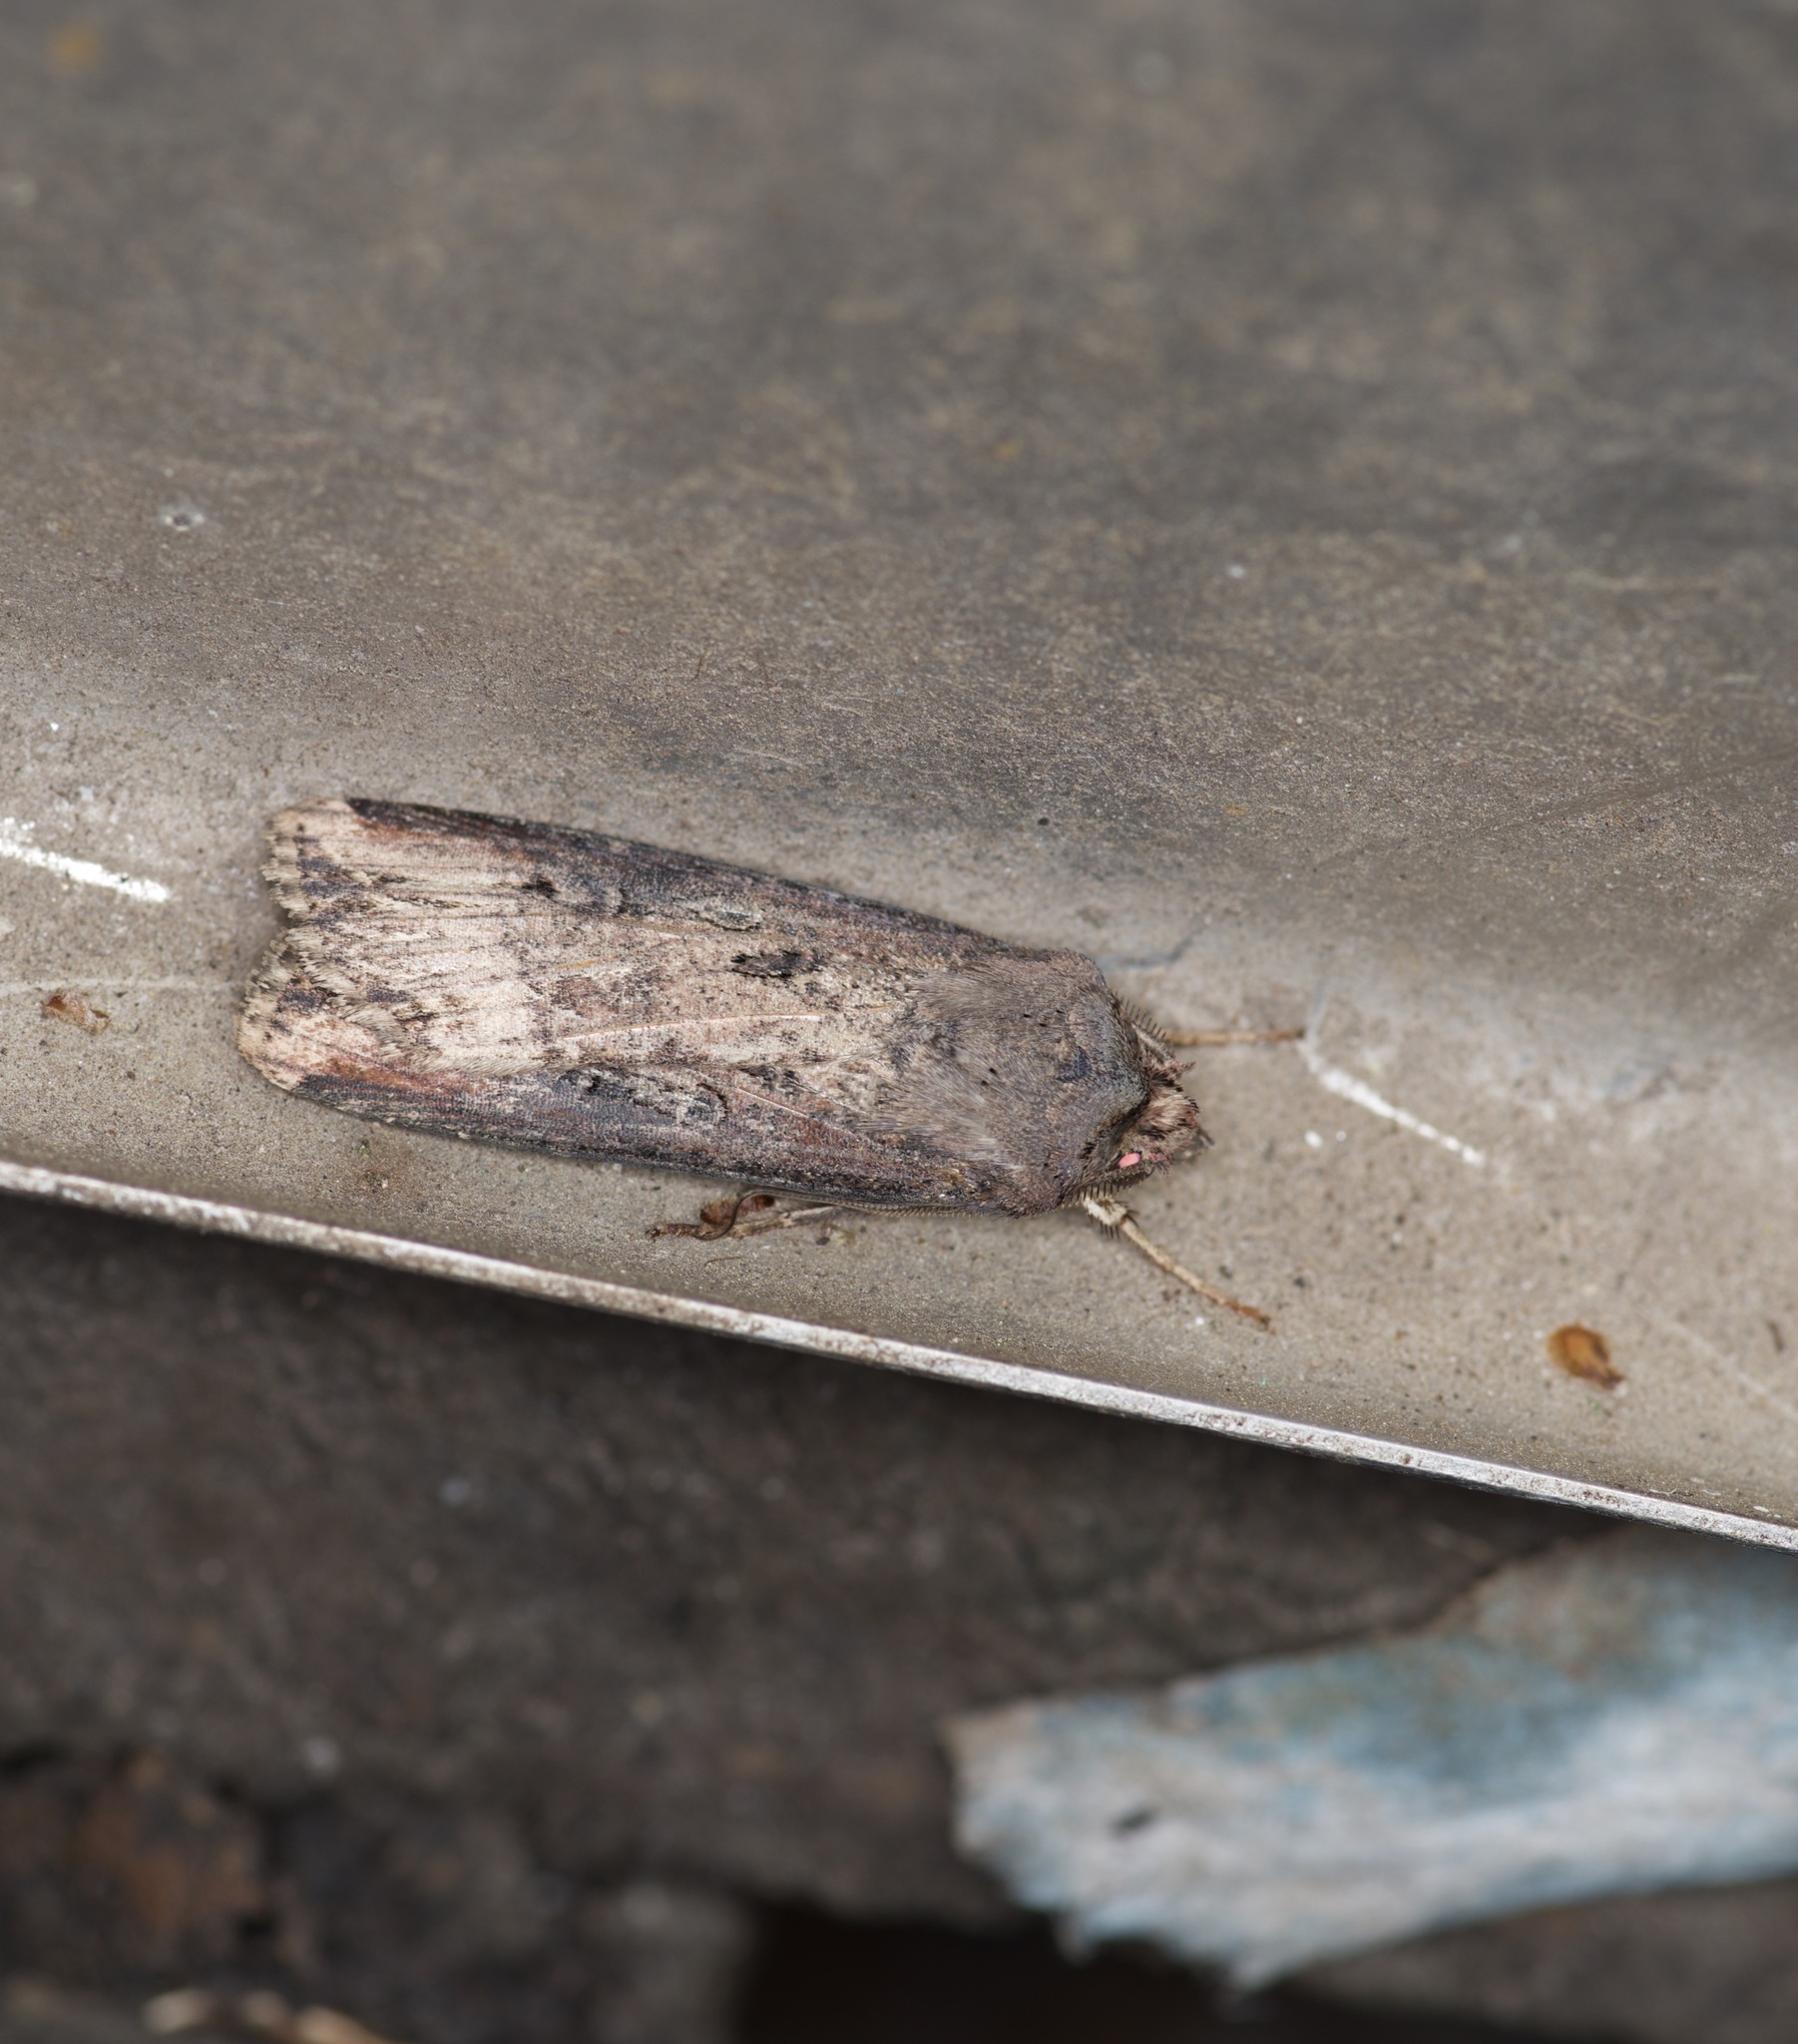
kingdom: Animalia
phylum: Arthropoda
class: Insecta
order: Lepidoptera
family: Noctuidae
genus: Agrotis
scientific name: Agrotis ipsilon
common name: Dark sword-grass
